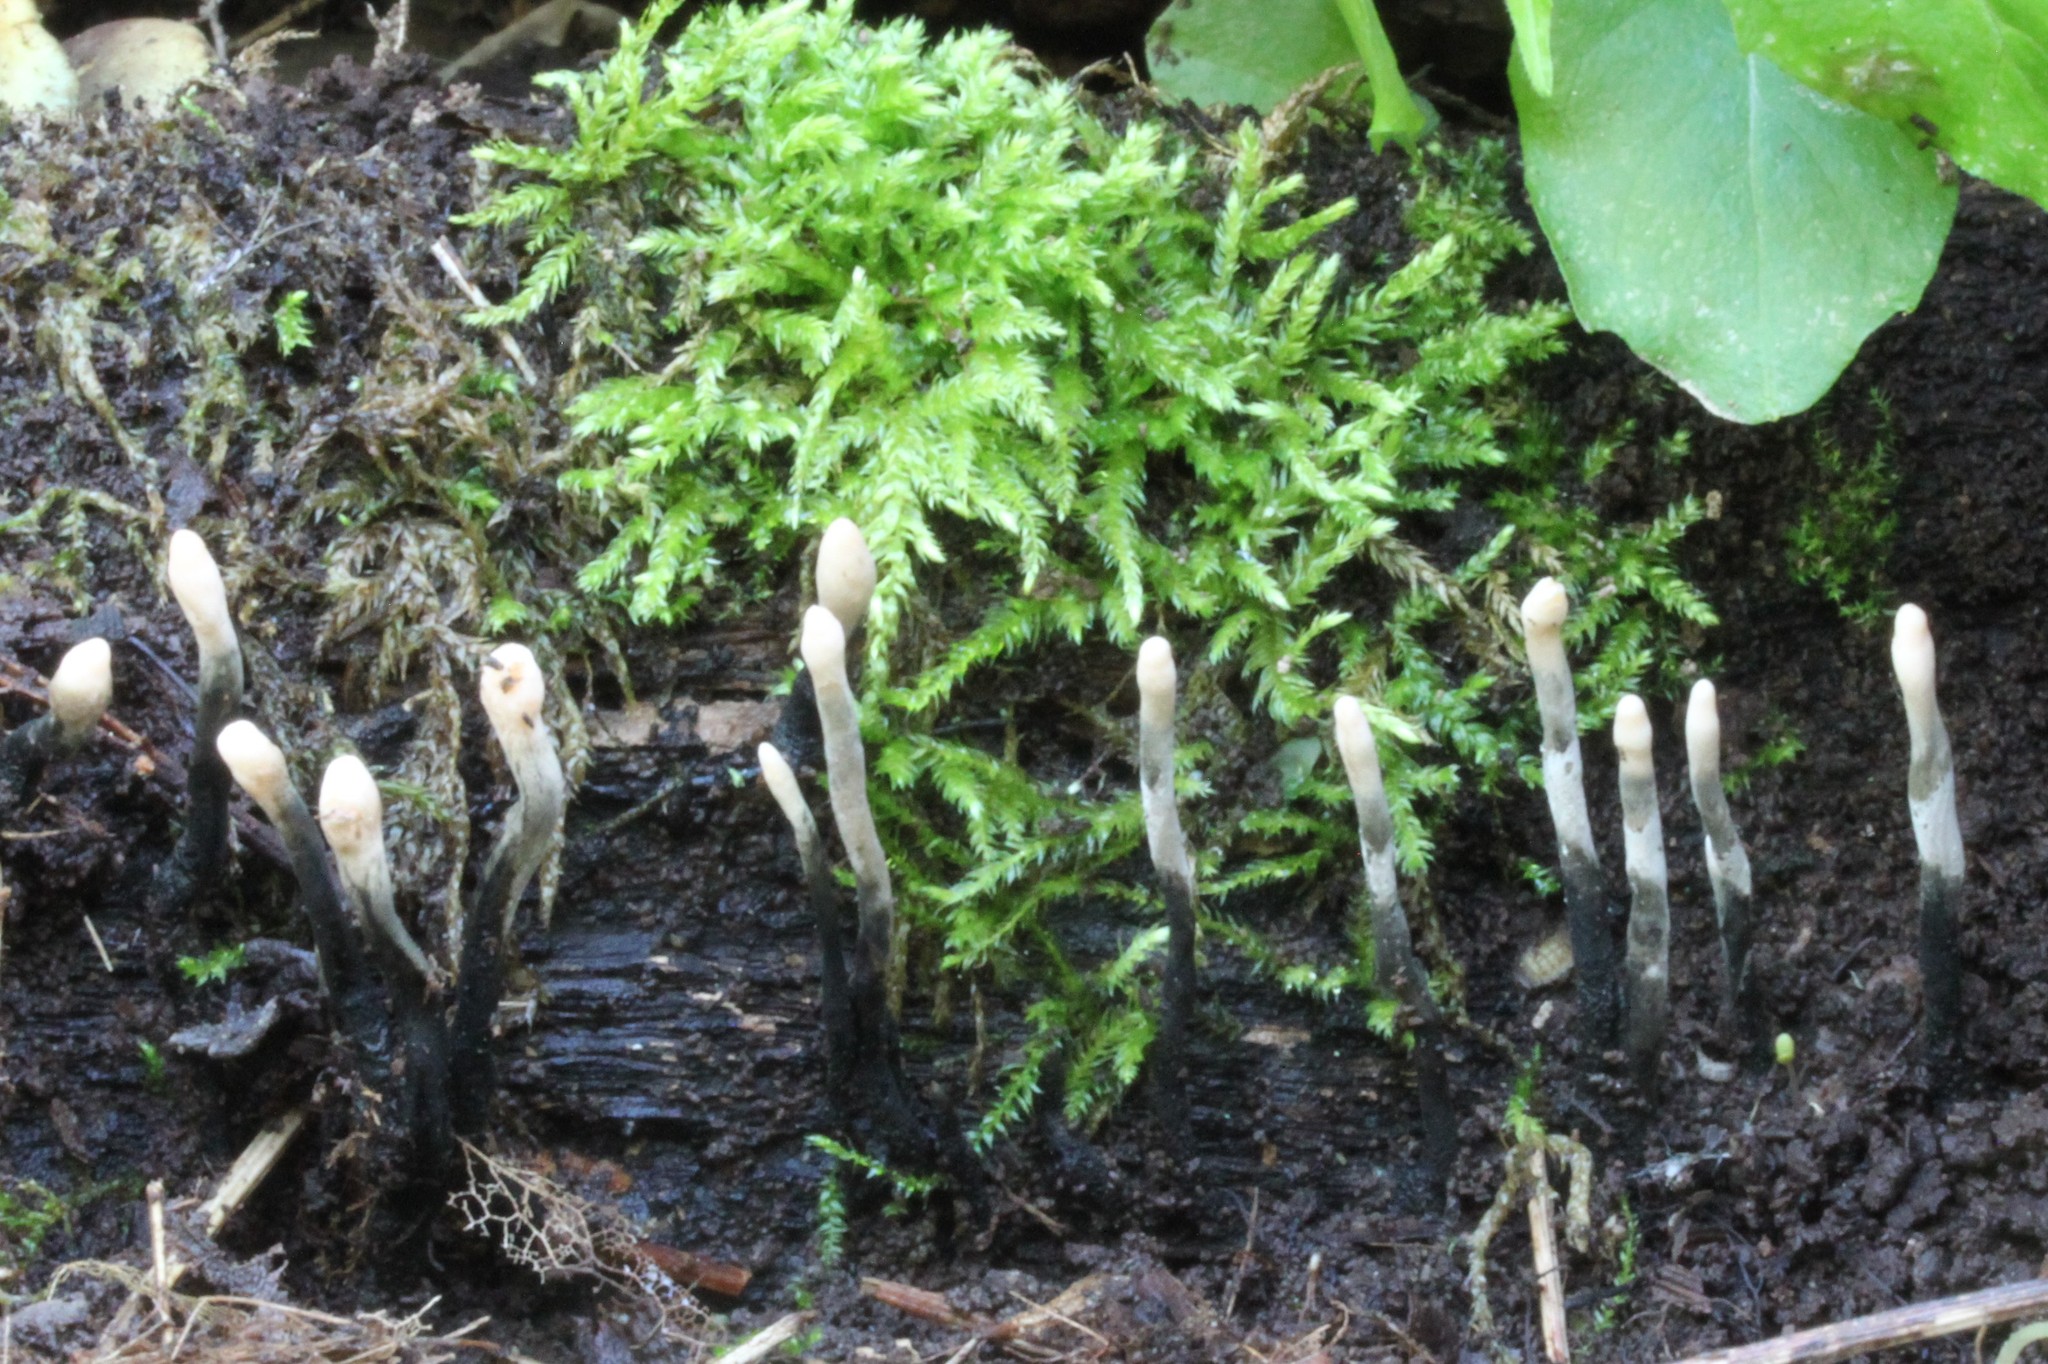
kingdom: Fungi
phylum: Ascomycota
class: Sordariomycetes
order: Xylariales
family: Xylariaceae
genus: Xylaria
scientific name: Xylaria hypoxylon
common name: Candle-snuff fungus
